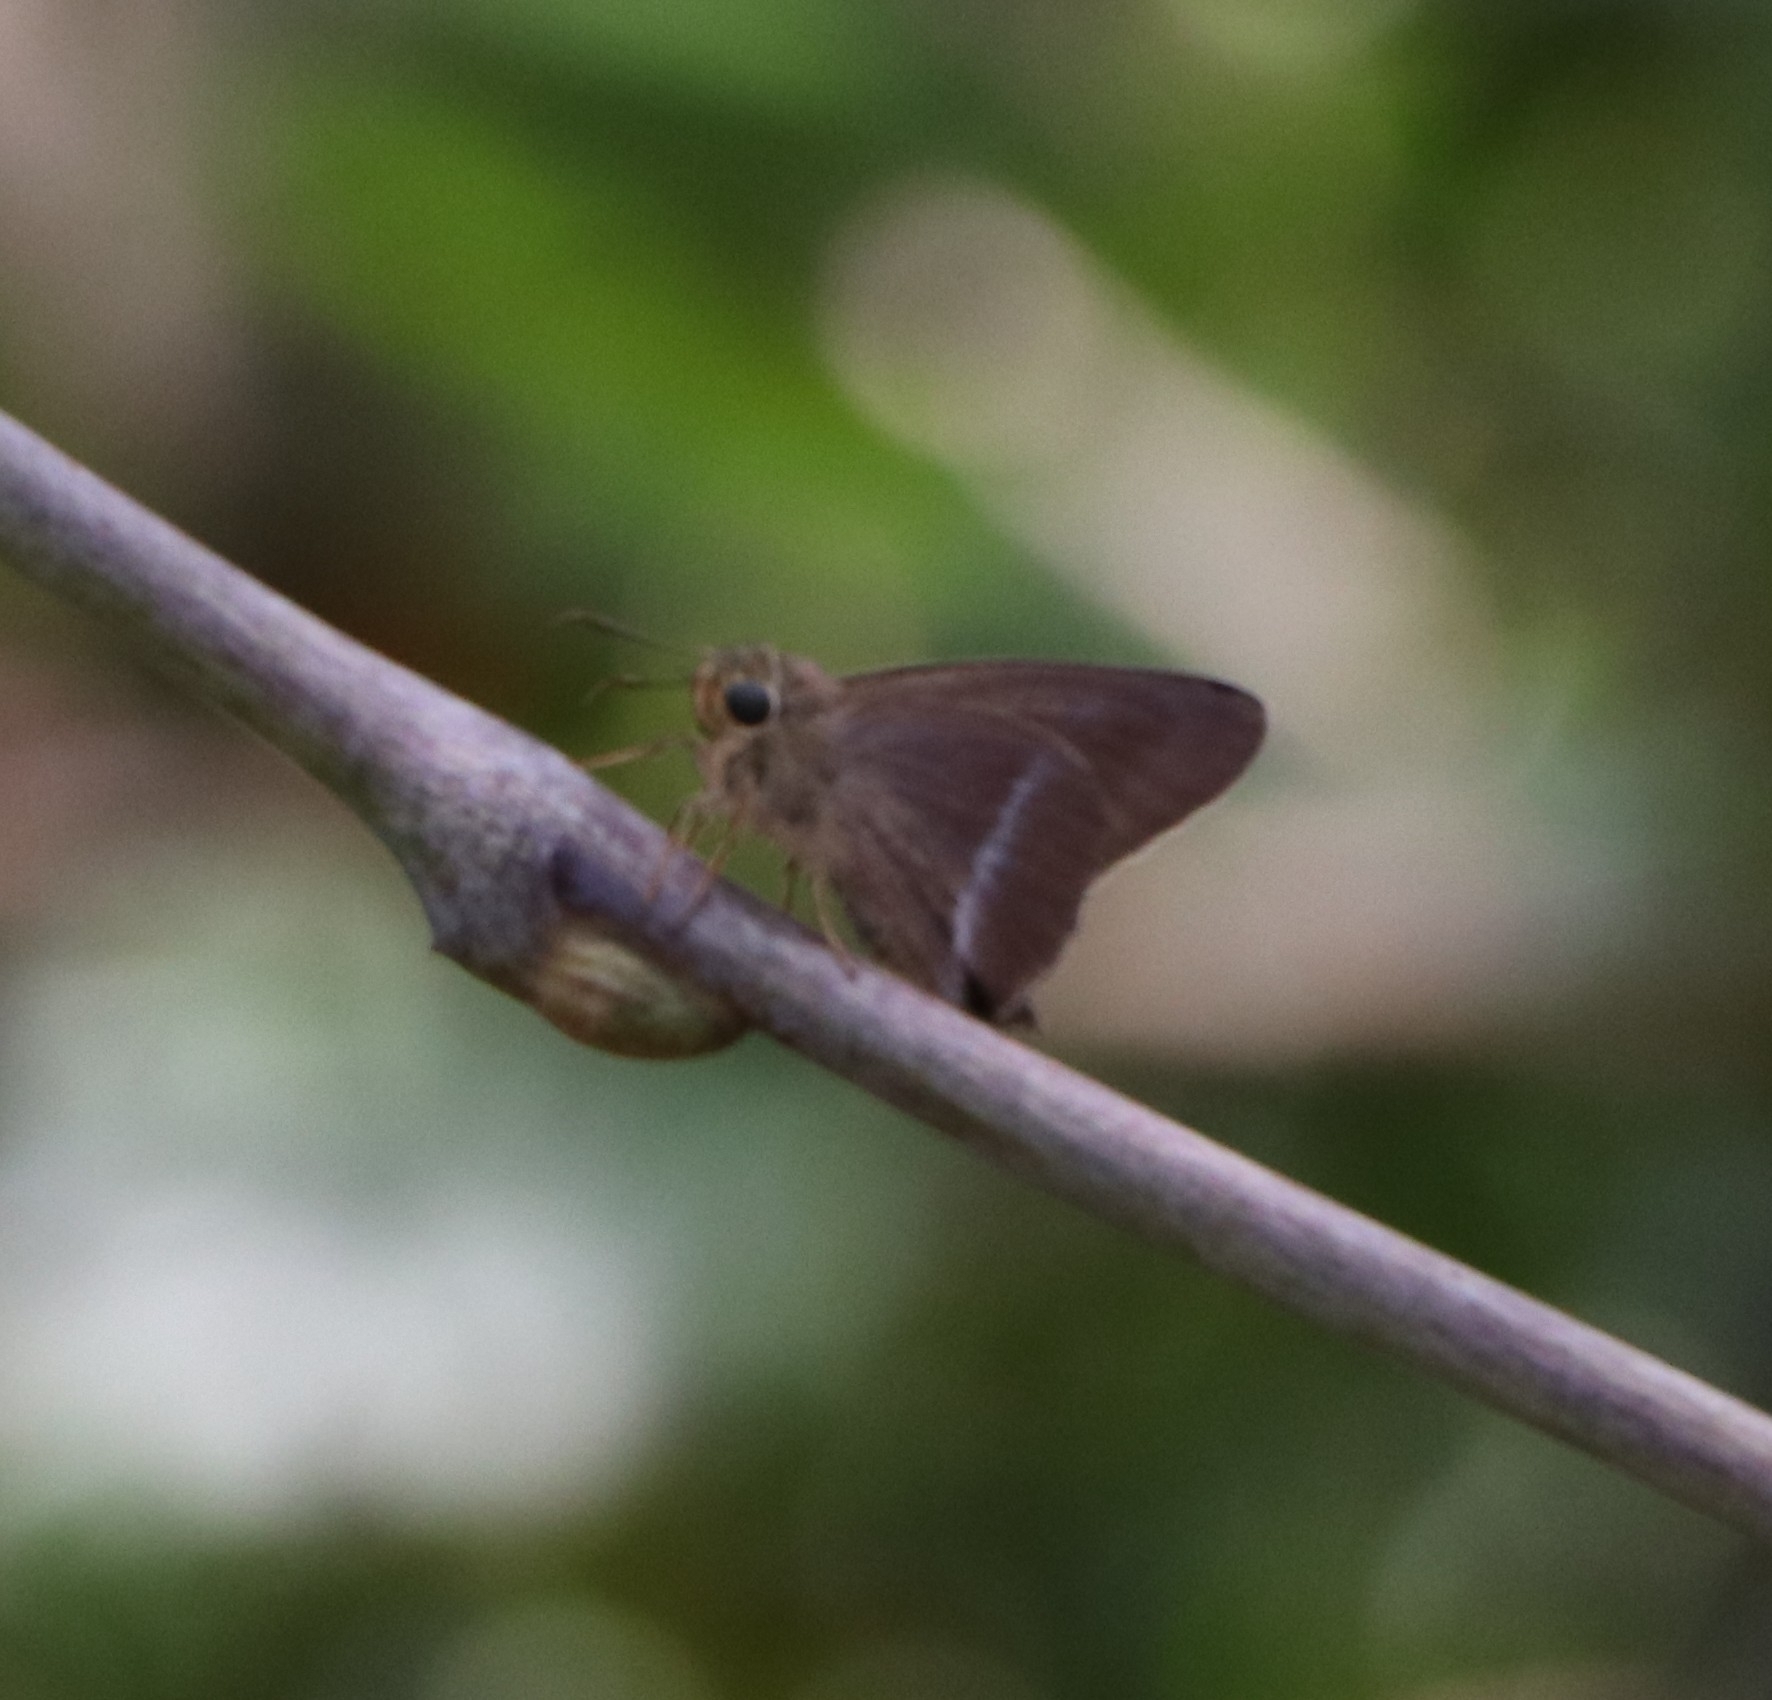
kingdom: Animalia
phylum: Arthropoda
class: Insecta
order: Lepidoptera
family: Hesperiidae
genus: Hasora
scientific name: Hasora chromus
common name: Common banded awl
